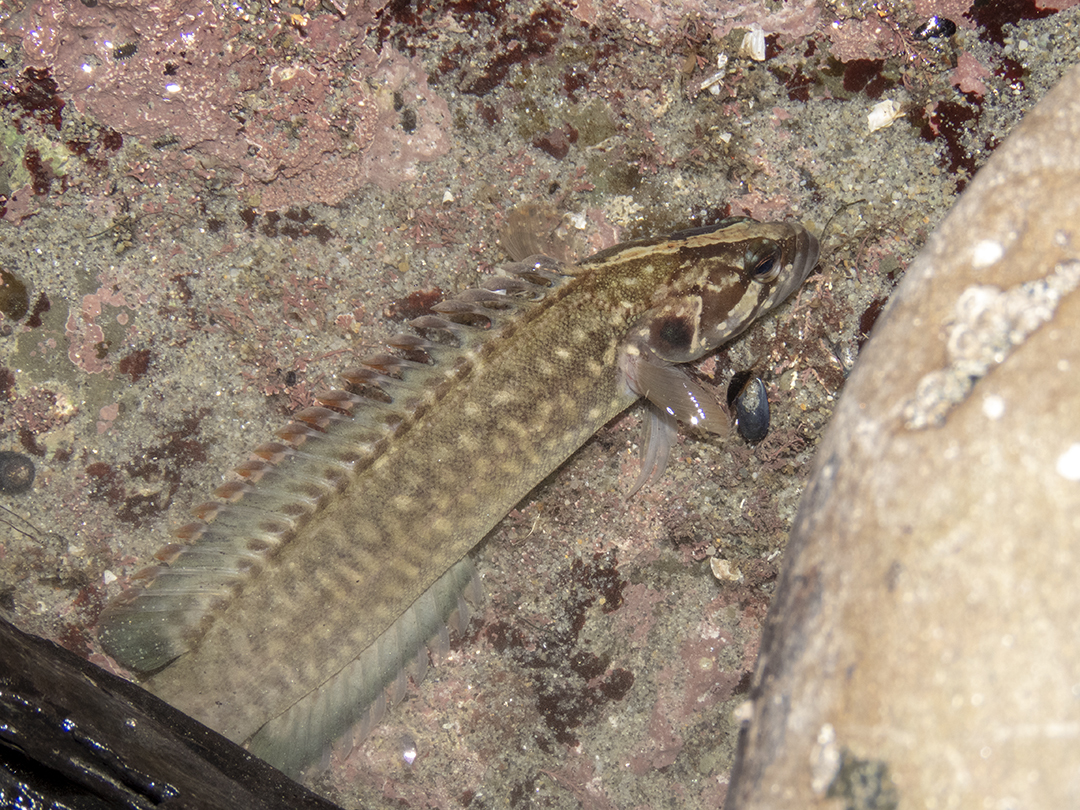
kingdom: Animalia
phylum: Chordata
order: Perciformes
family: Plesiopidae
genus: Acanthoclinus
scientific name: Acanthoclinus fuscus
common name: Olive rockfish
